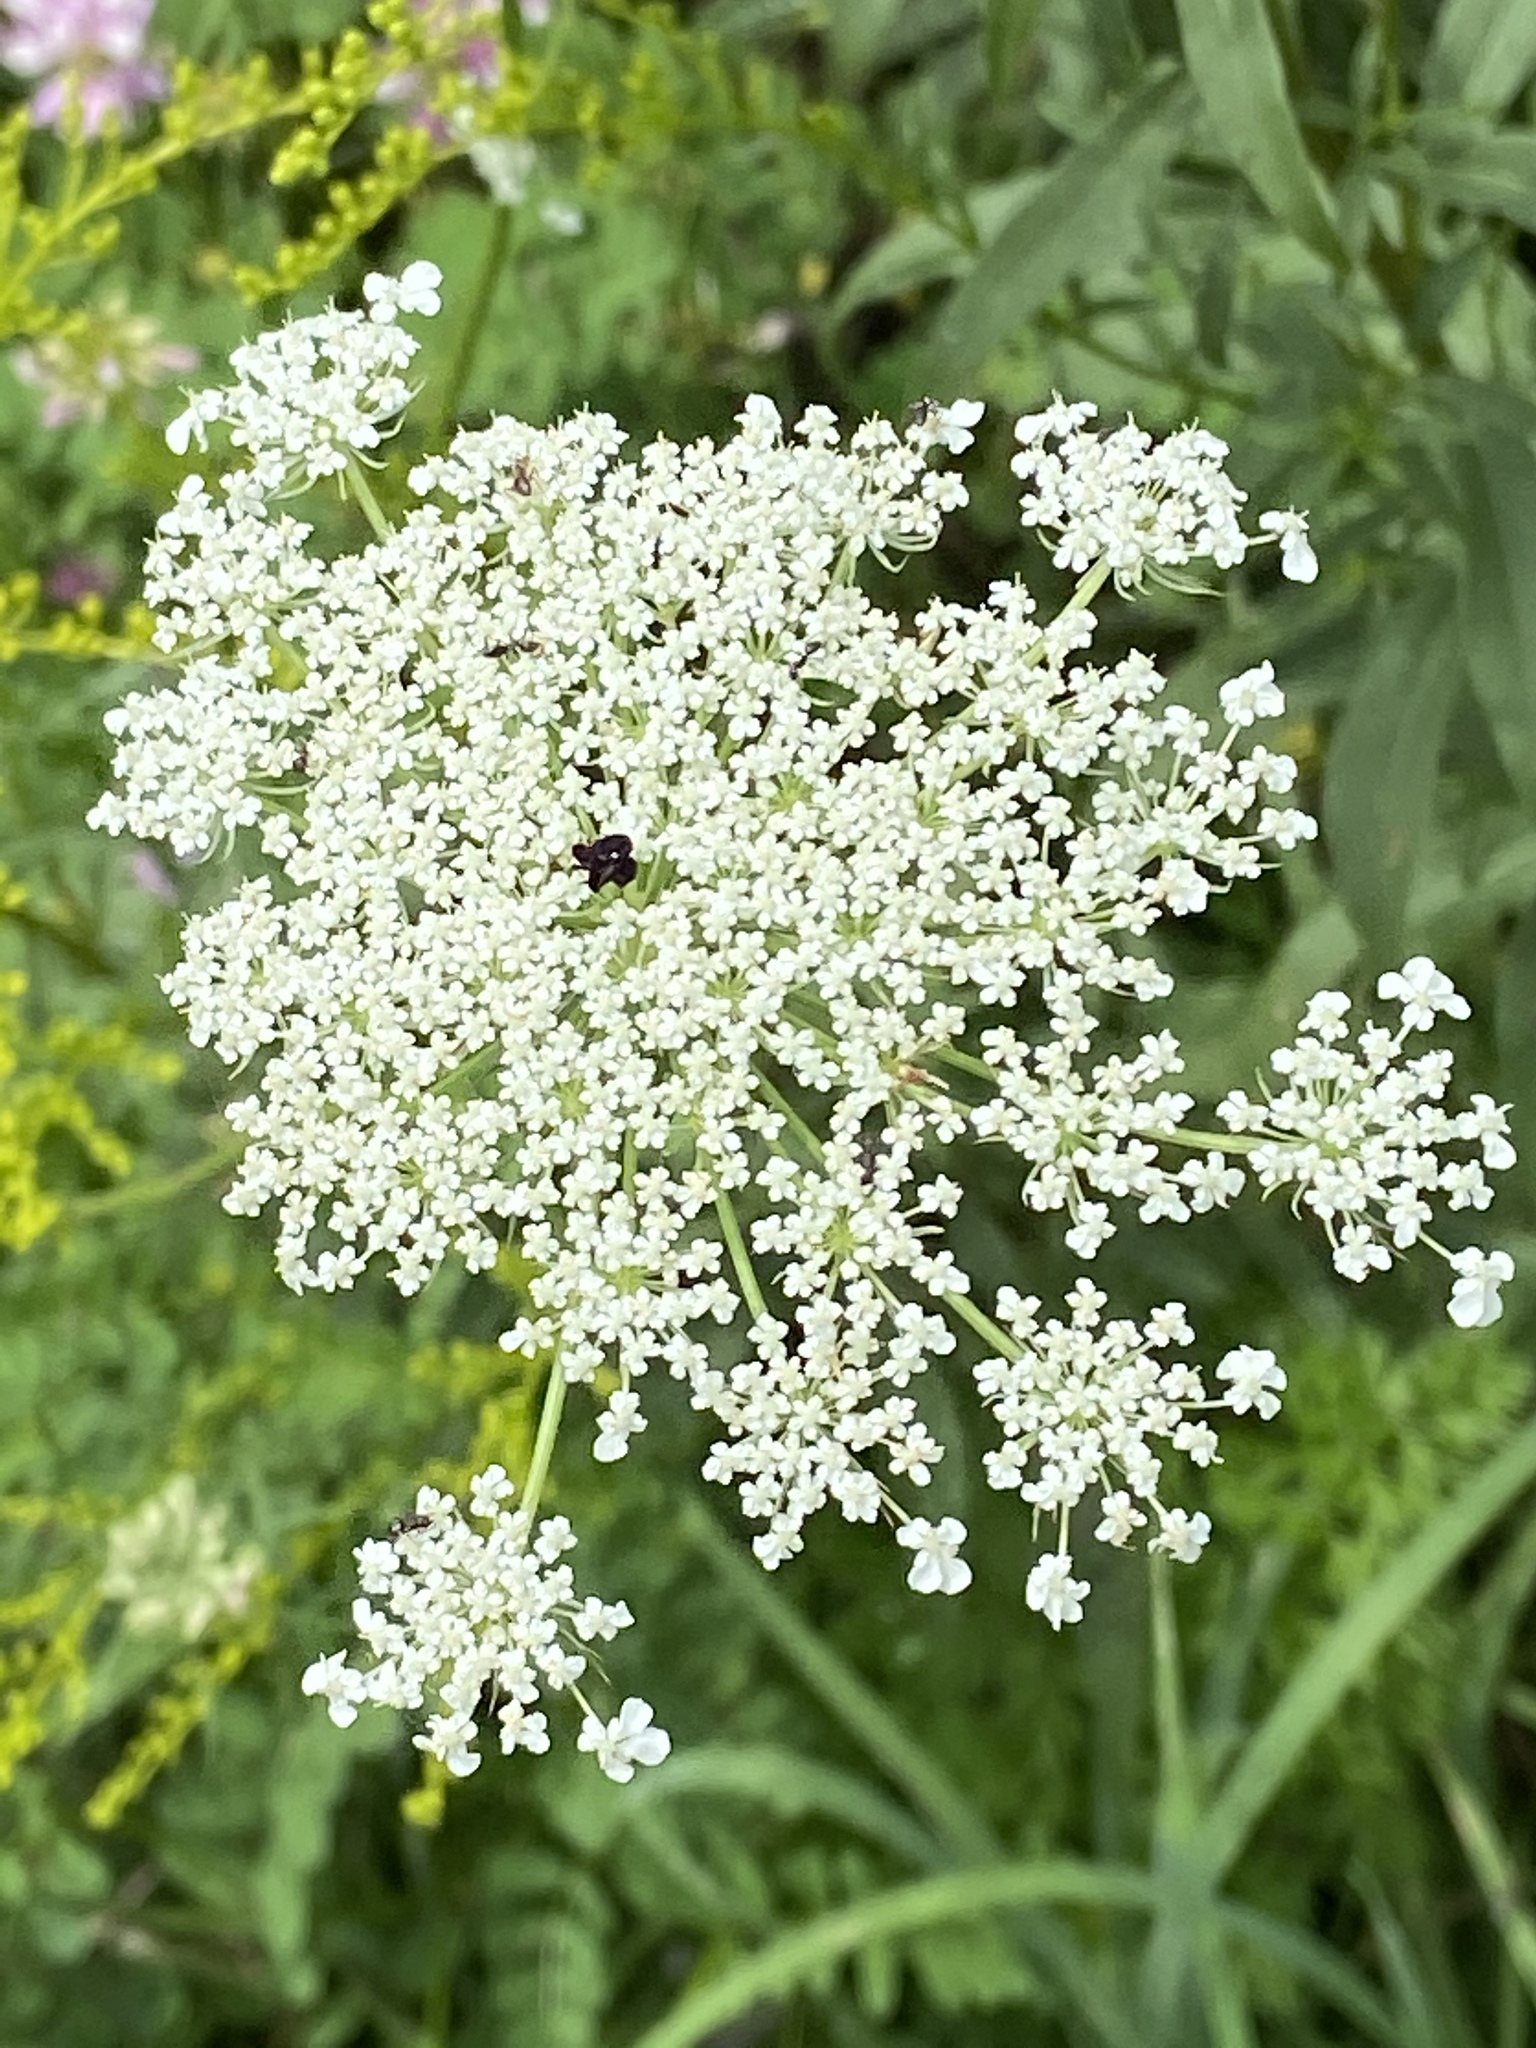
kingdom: Plantae
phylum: Tracheophyta
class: Magnoliopsida
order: Apiales
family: Apiaceae
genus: Daucus
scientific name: Daucus carota
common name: Wild carrot
